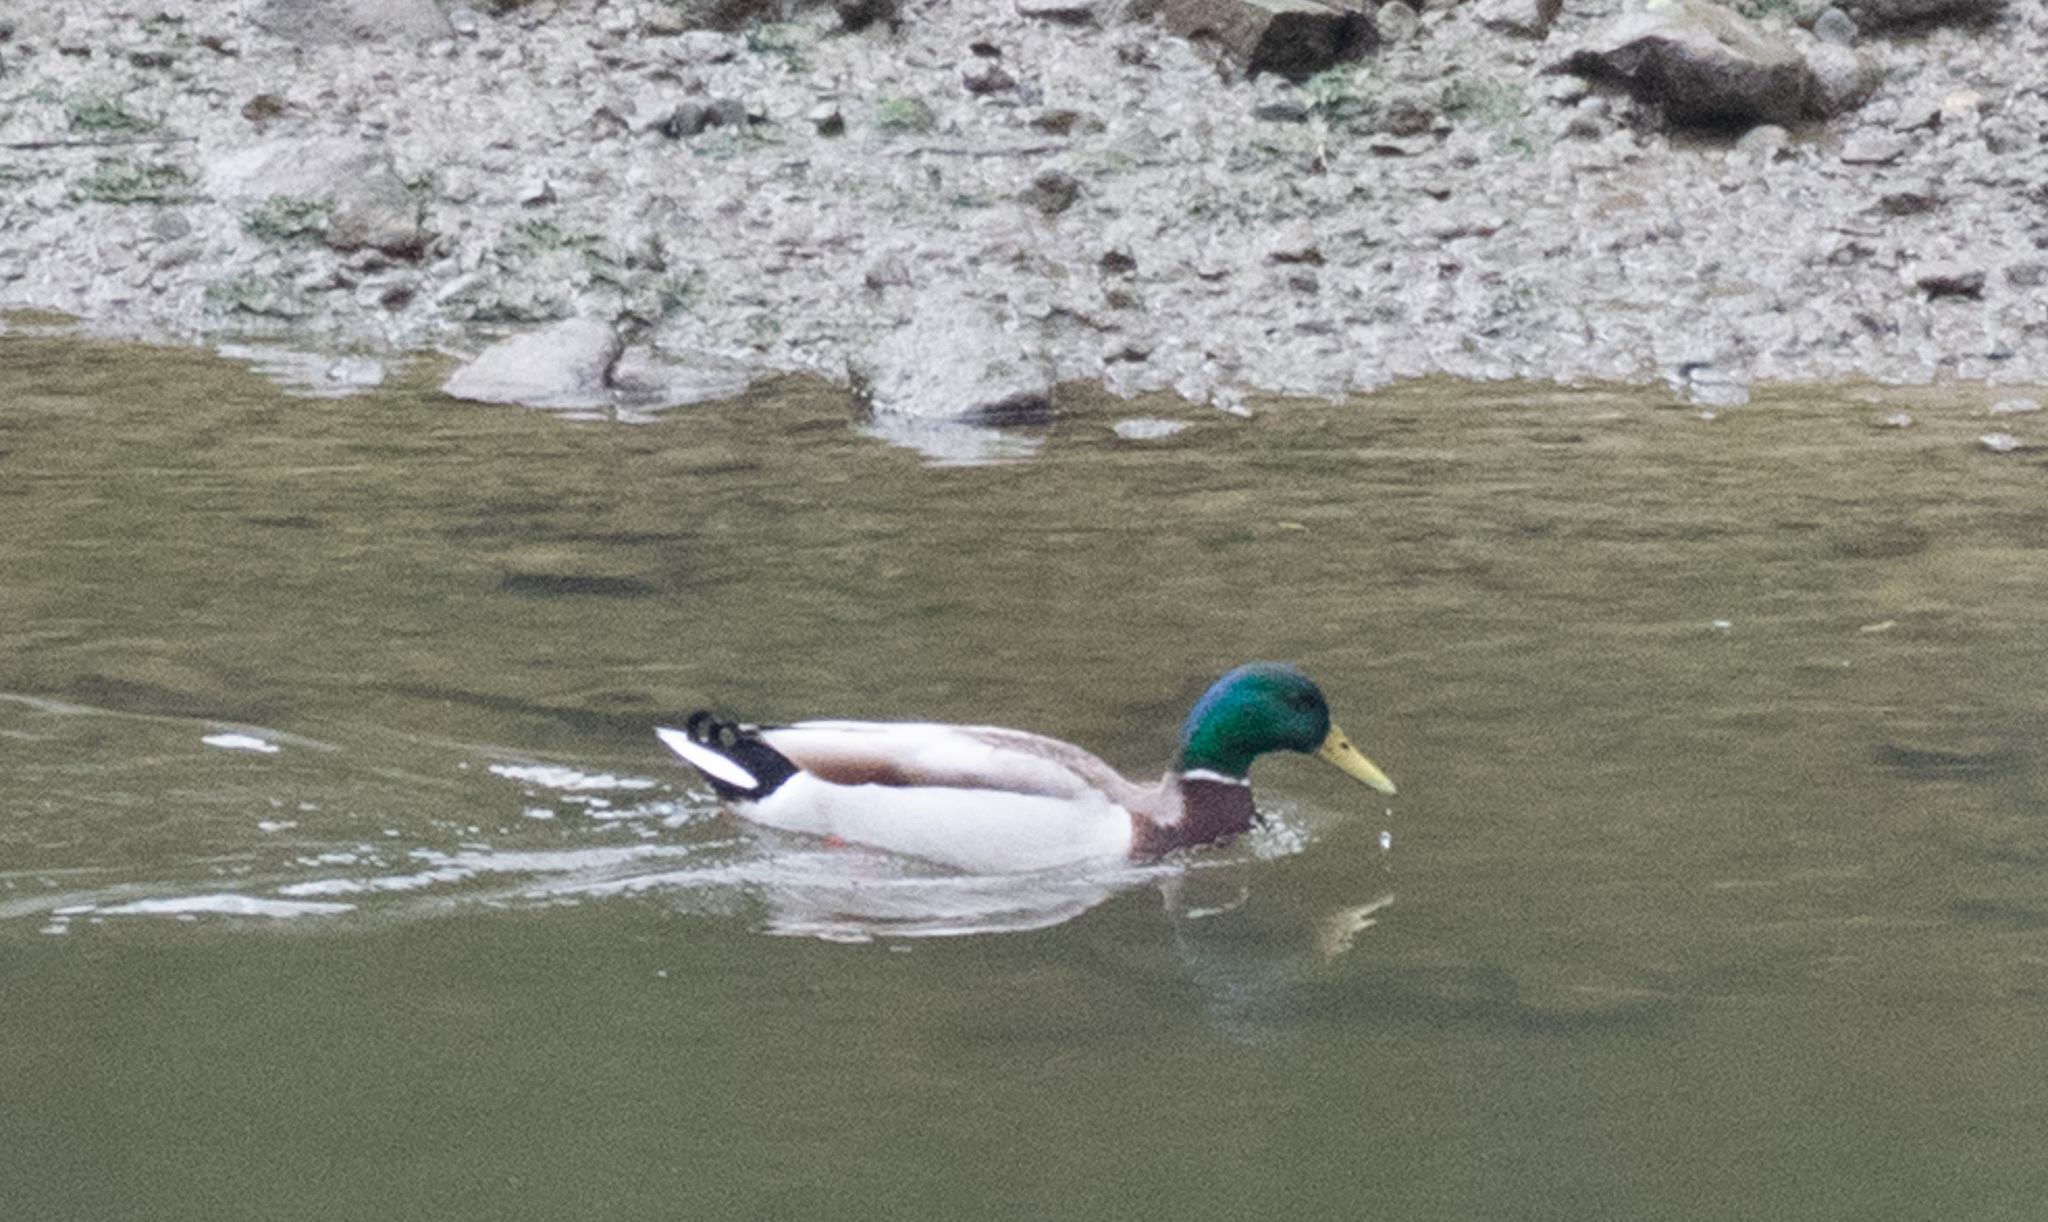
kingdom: Animalia
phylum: Chordata
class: Aves
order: Anseriformes
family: Anatidae
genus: Anas
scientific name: Anas platyrhynchos
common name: Mallard
